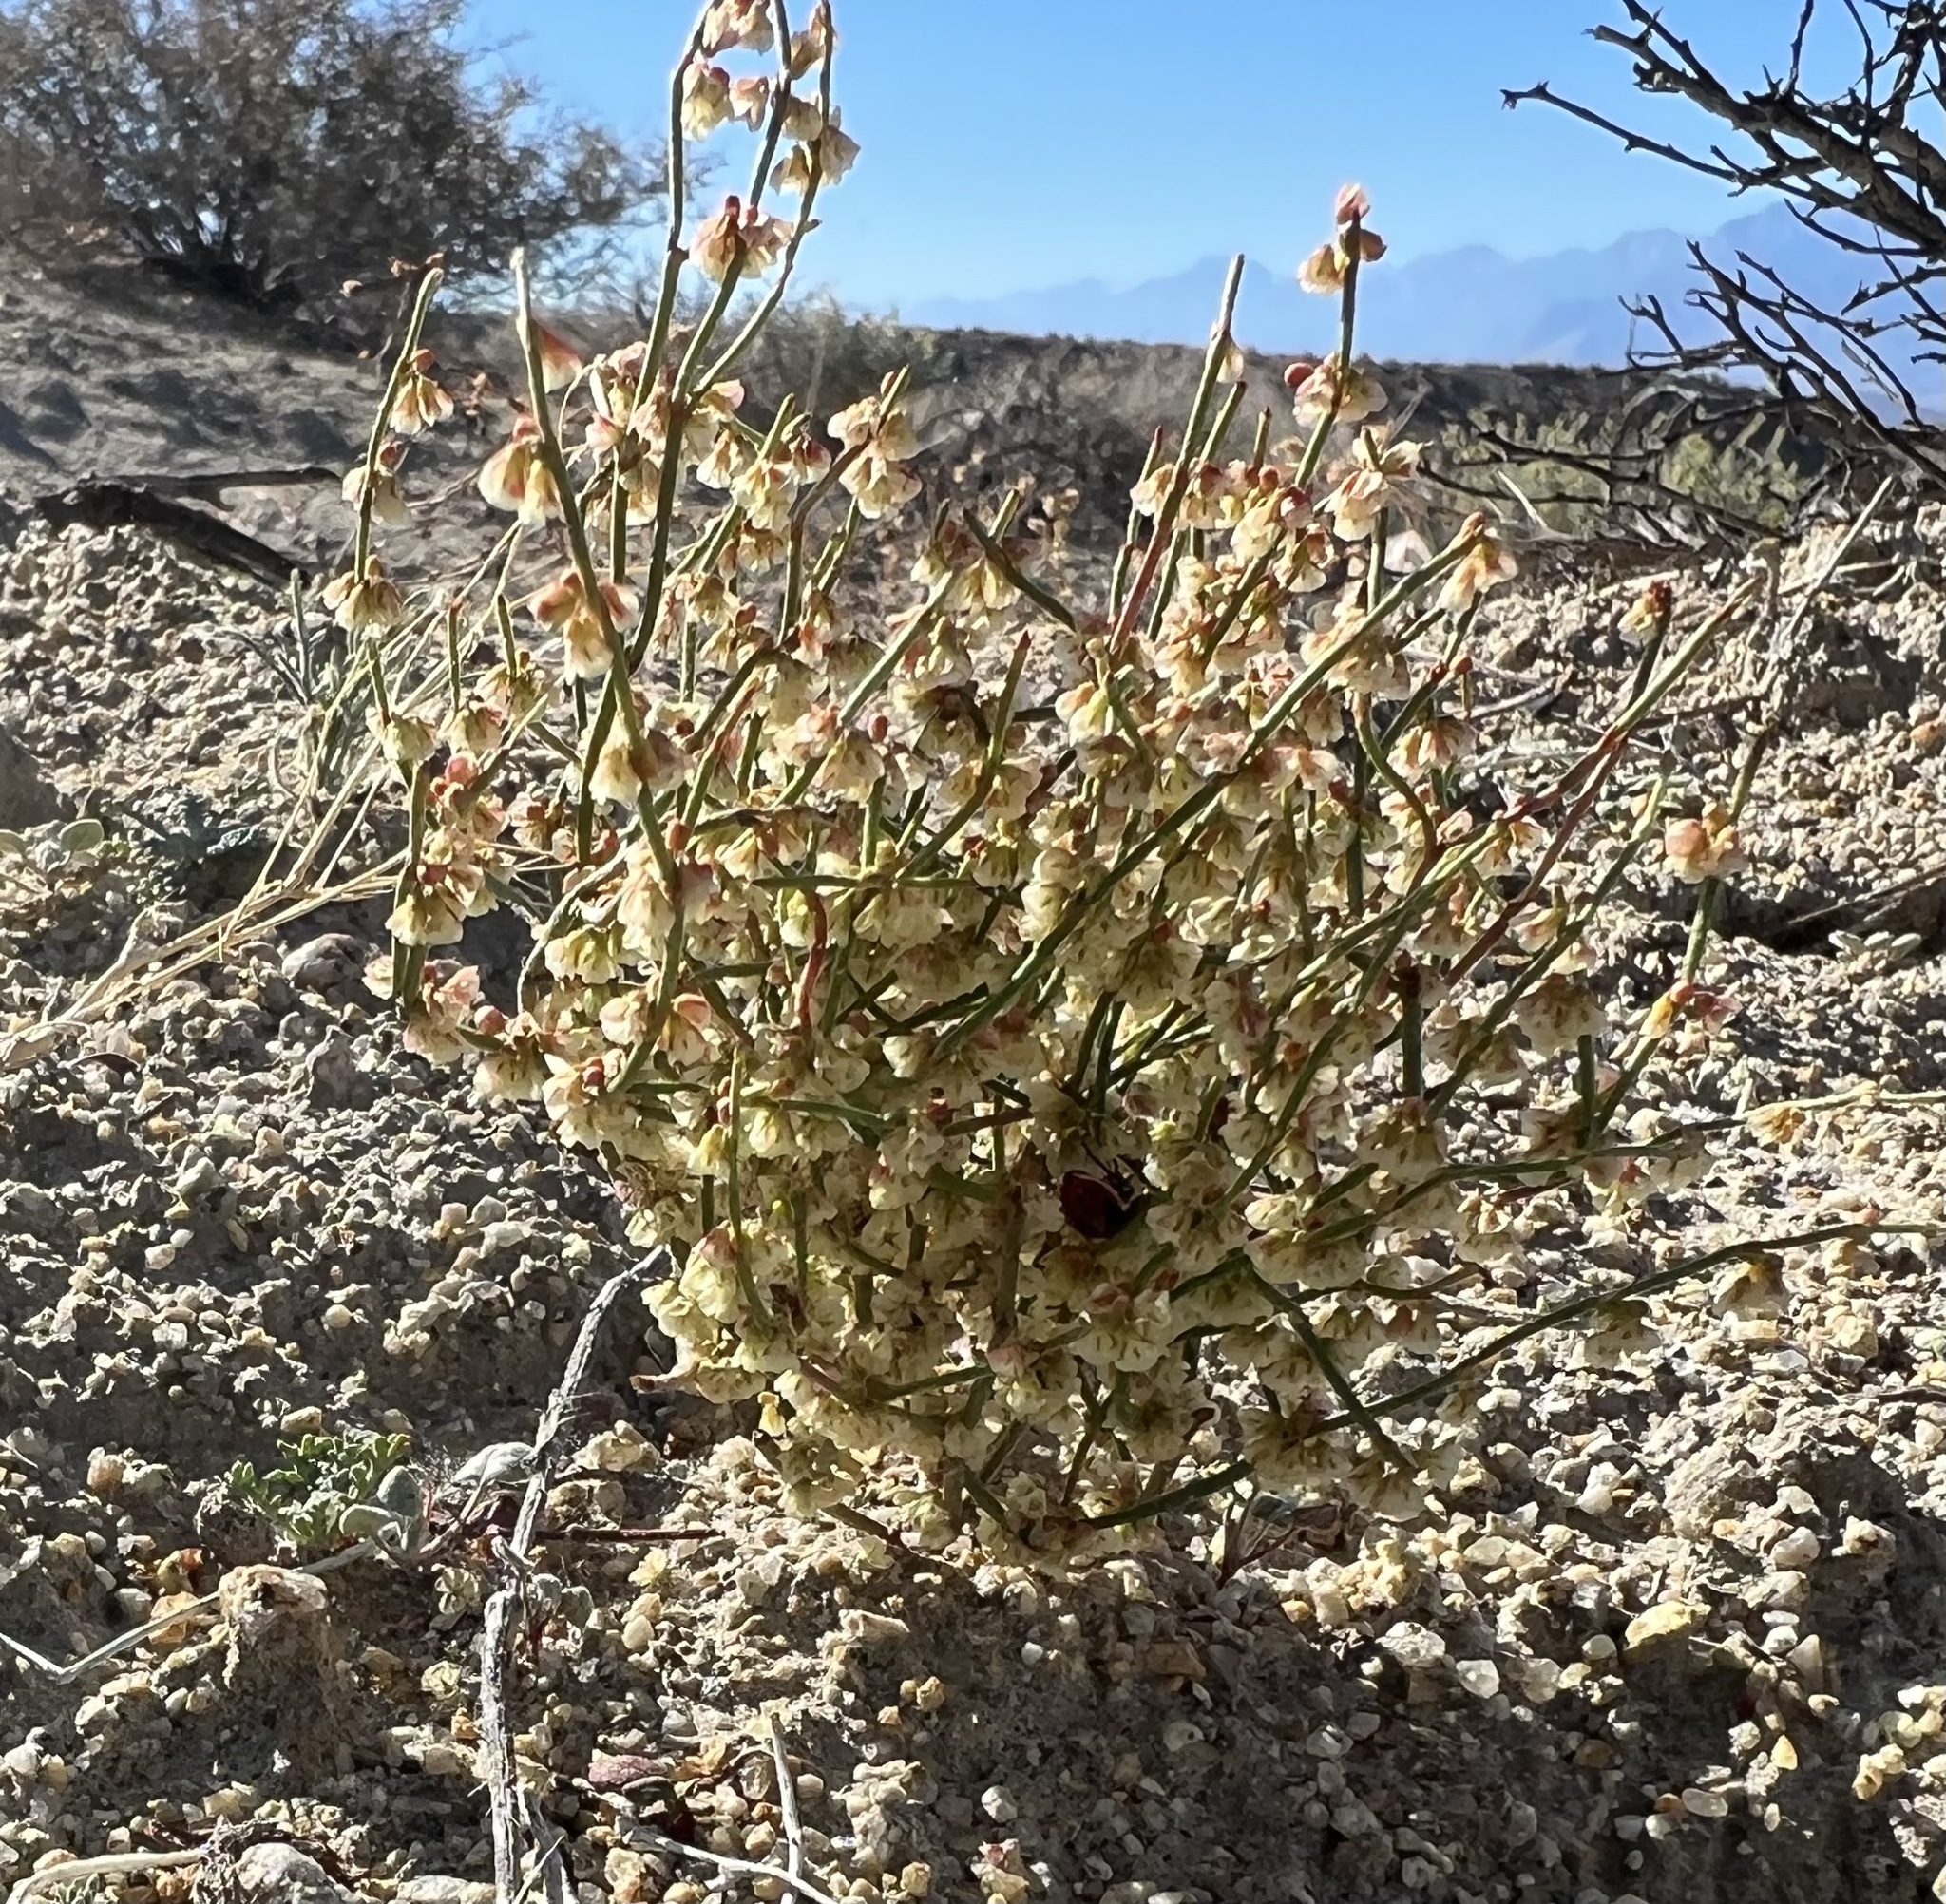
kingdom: Plantae
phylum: Tracheophyta
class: Magnoliopsida
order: Caryophyllales
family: Polygonaceae
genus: Eriogonum
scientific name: Eriogonum nidularium
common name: Bird's-nest wild buckwheat
